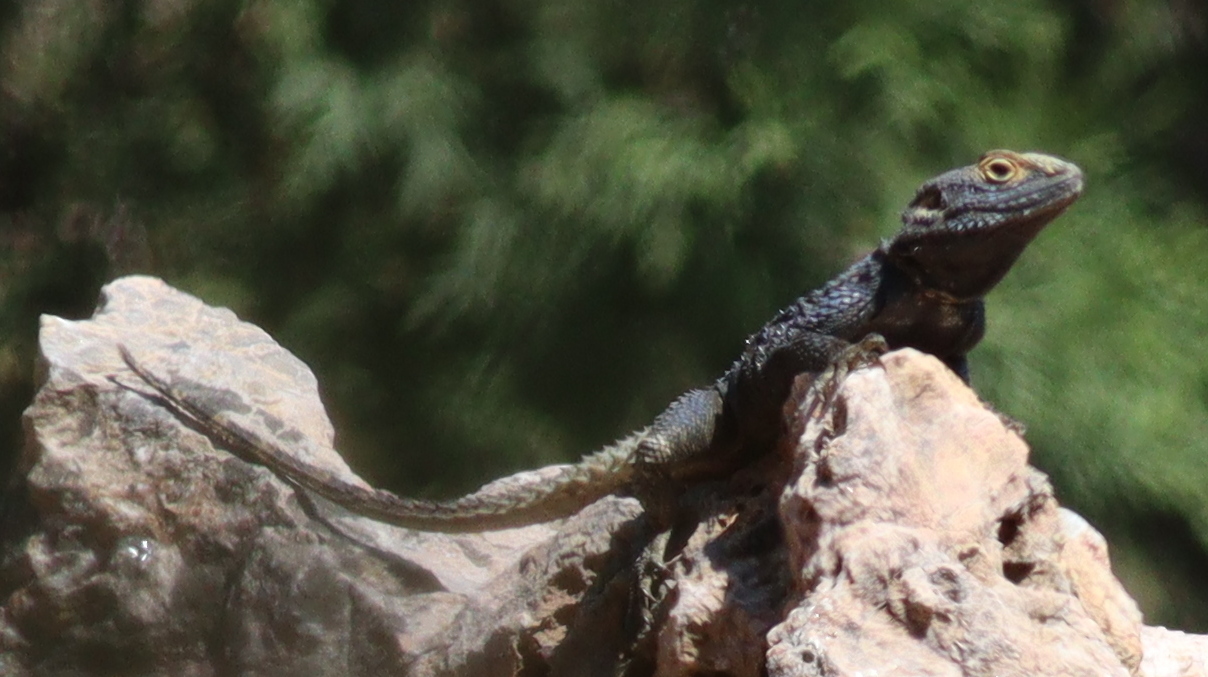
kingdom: Animalia
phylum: Chordata
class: Squamata
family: Agamidae
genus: Stellagama
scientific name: Stellagama stellio
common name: Starred agama
